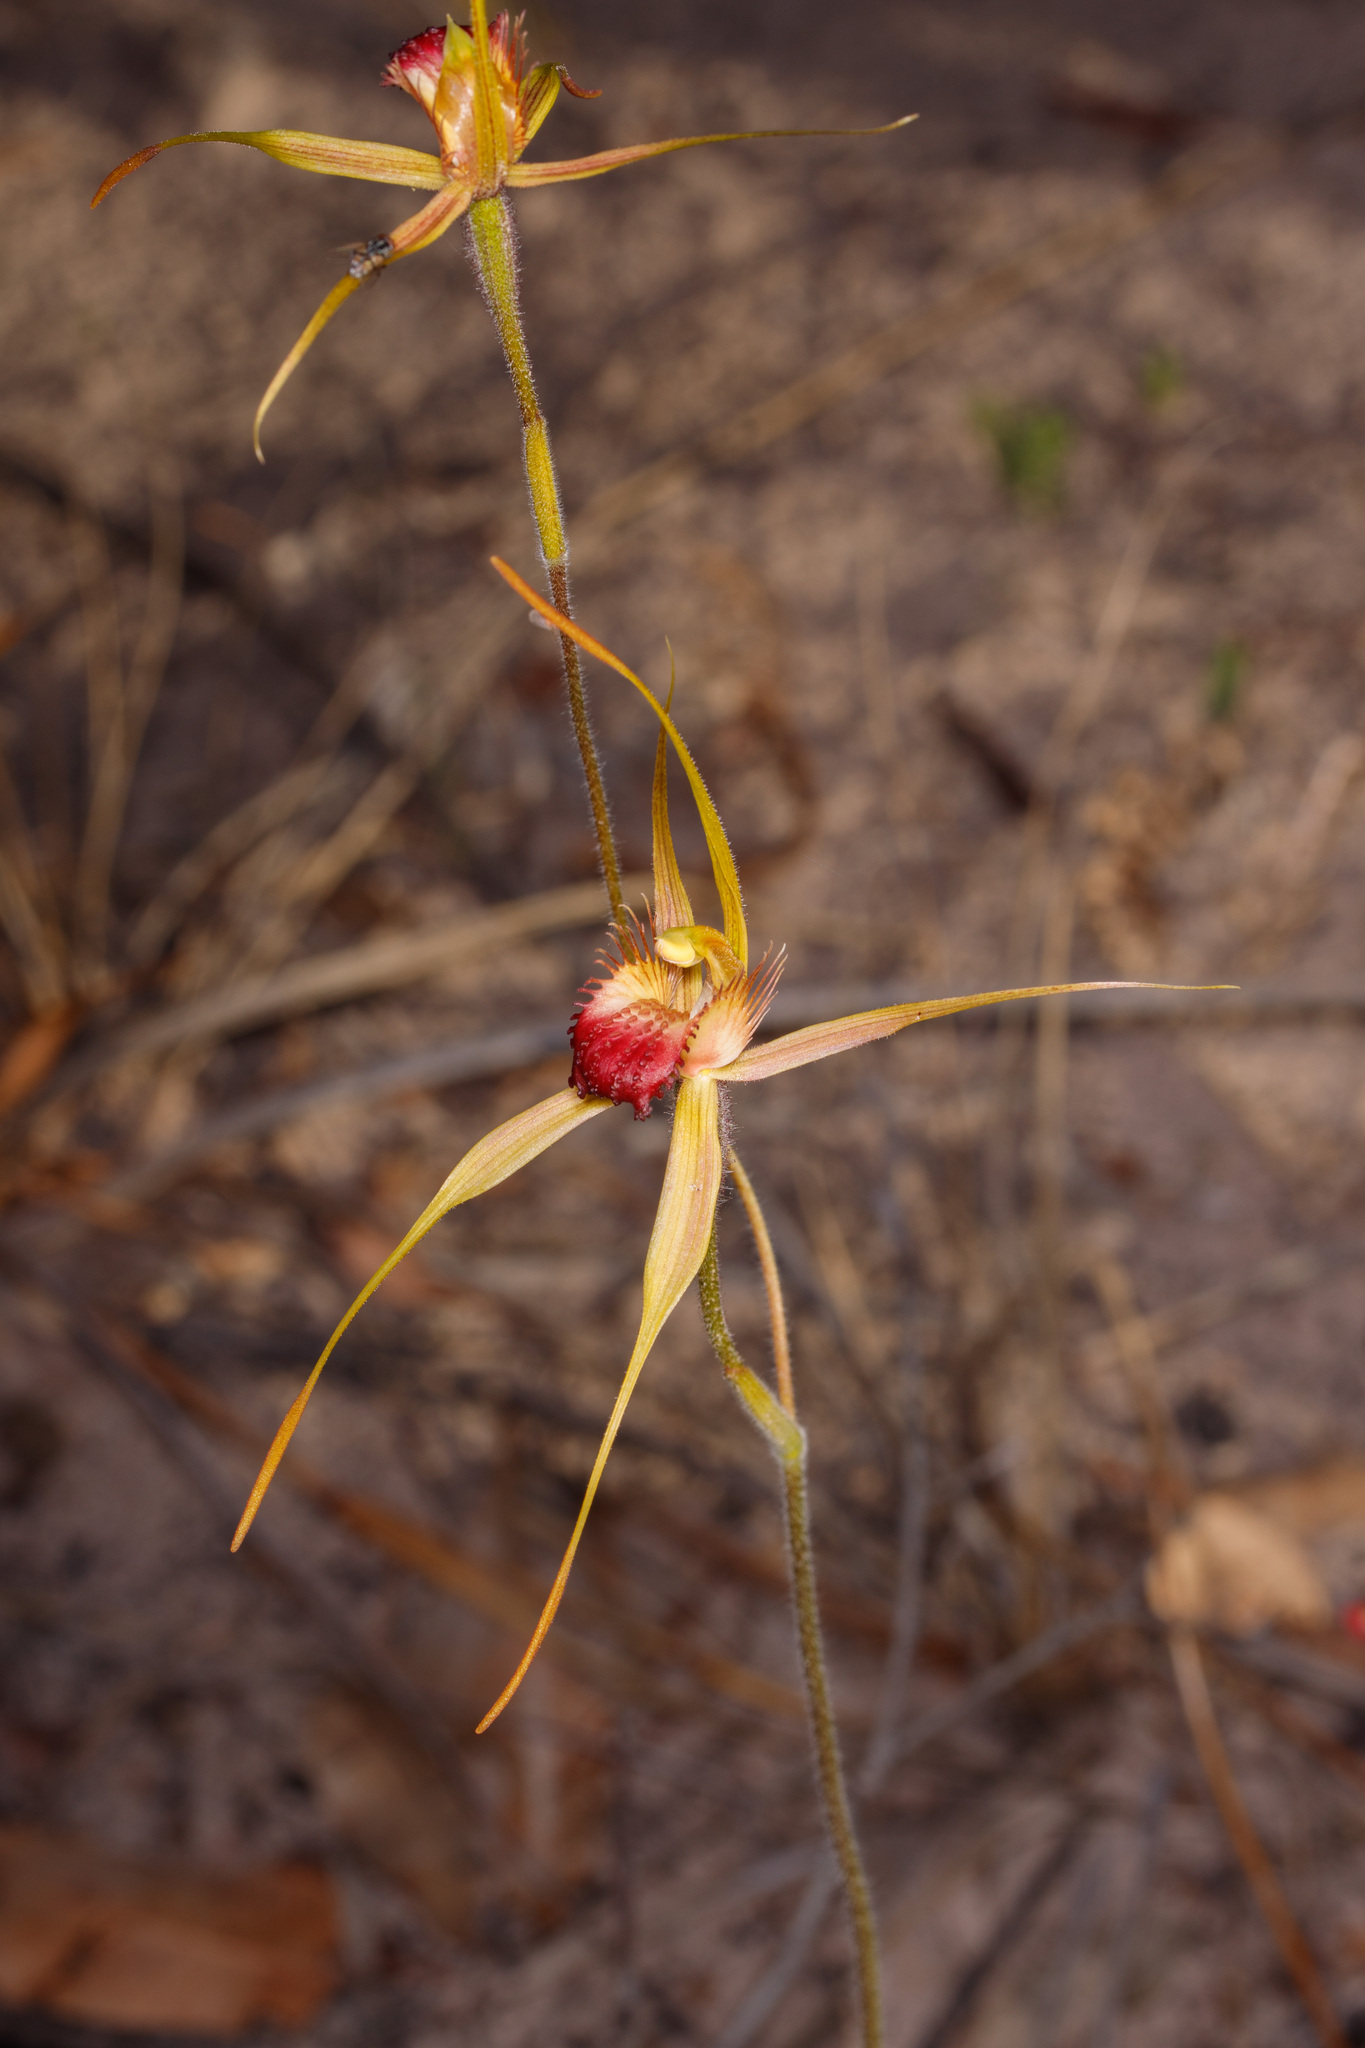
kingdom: Plantae
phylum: Tracheophyta
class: Liliopsida
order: Asparagales
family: Orchidaceae
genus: Caladenia
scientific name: Caladenia pectinata
